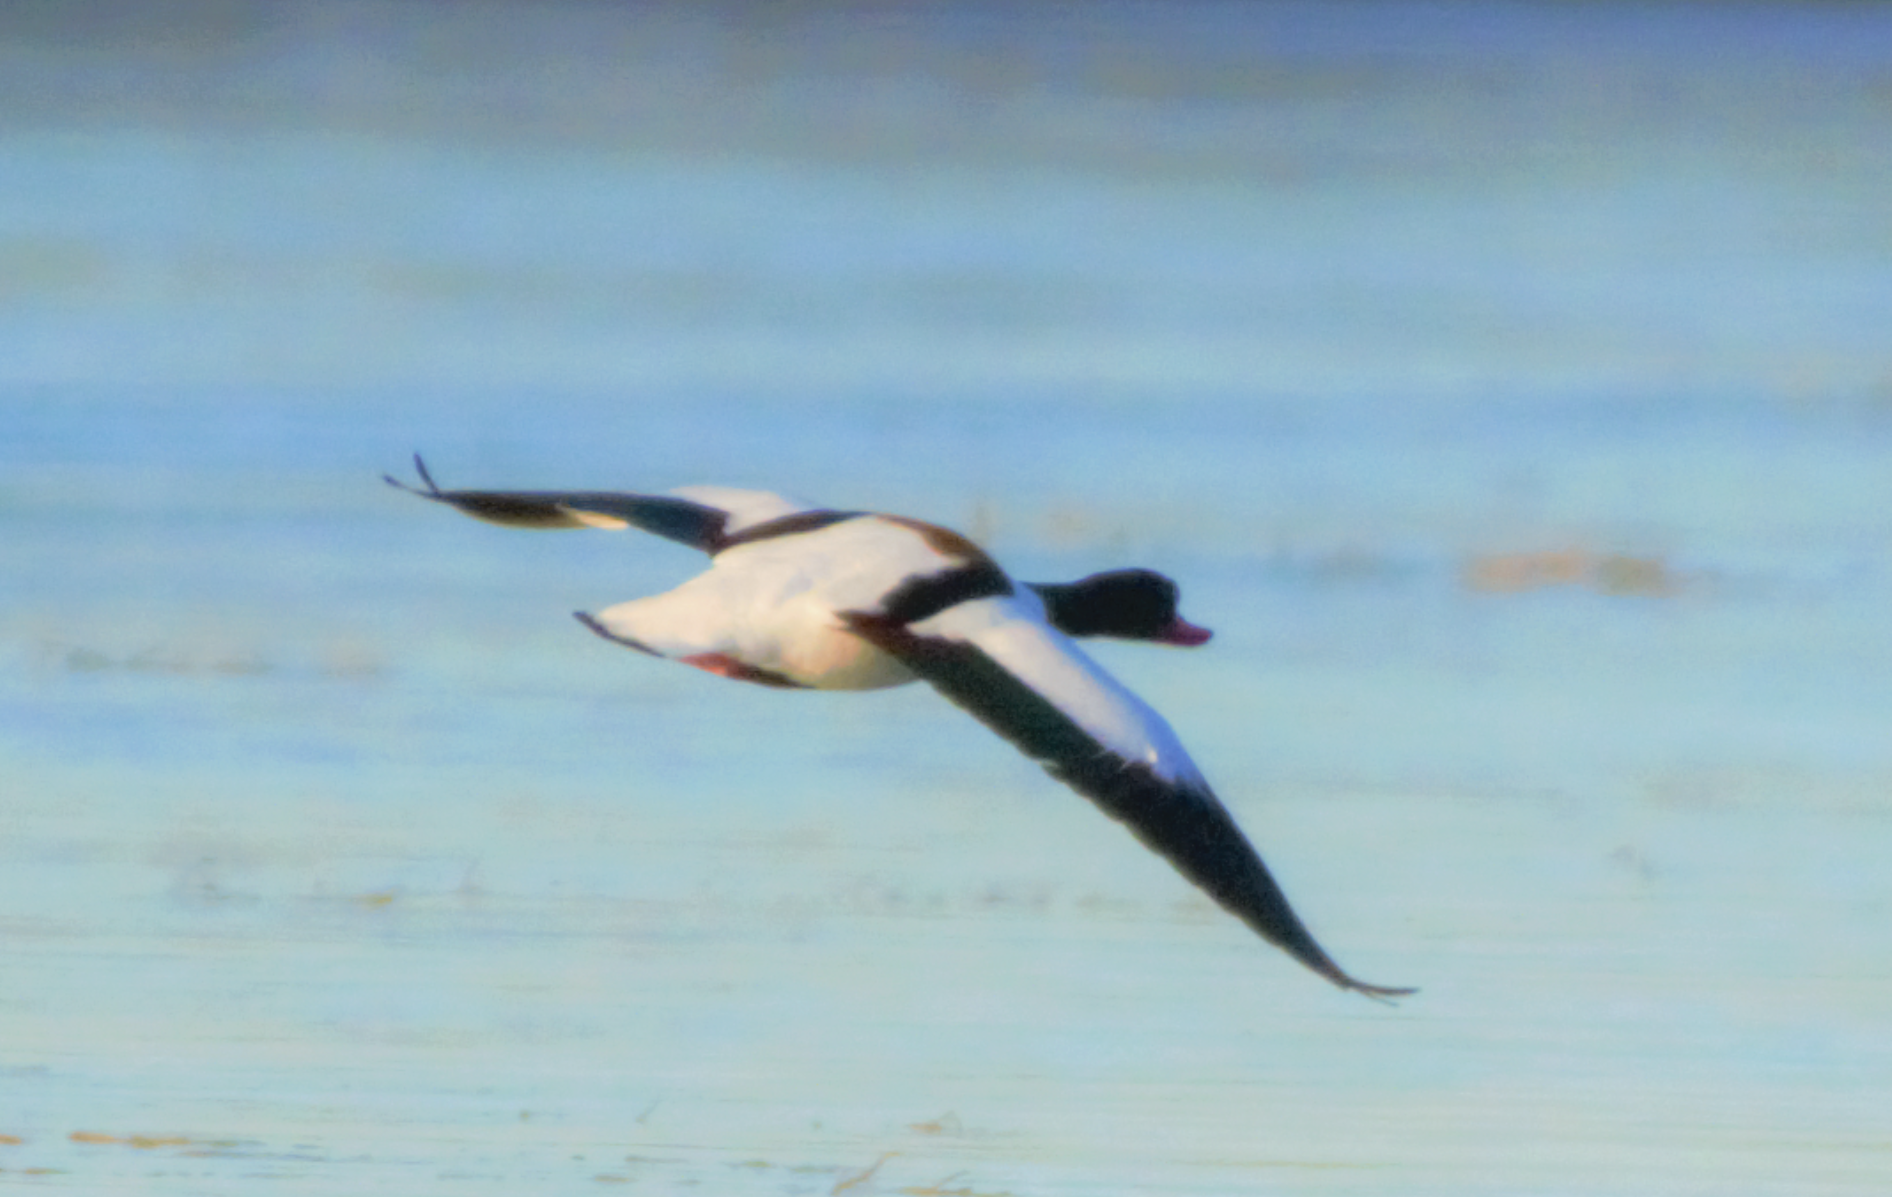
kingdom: Animalia
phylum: Chordata
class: Aves
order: Anseriformes
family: Anatidae
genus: Tadorna
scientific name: Tadorna tadorna
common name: Common shelduck
